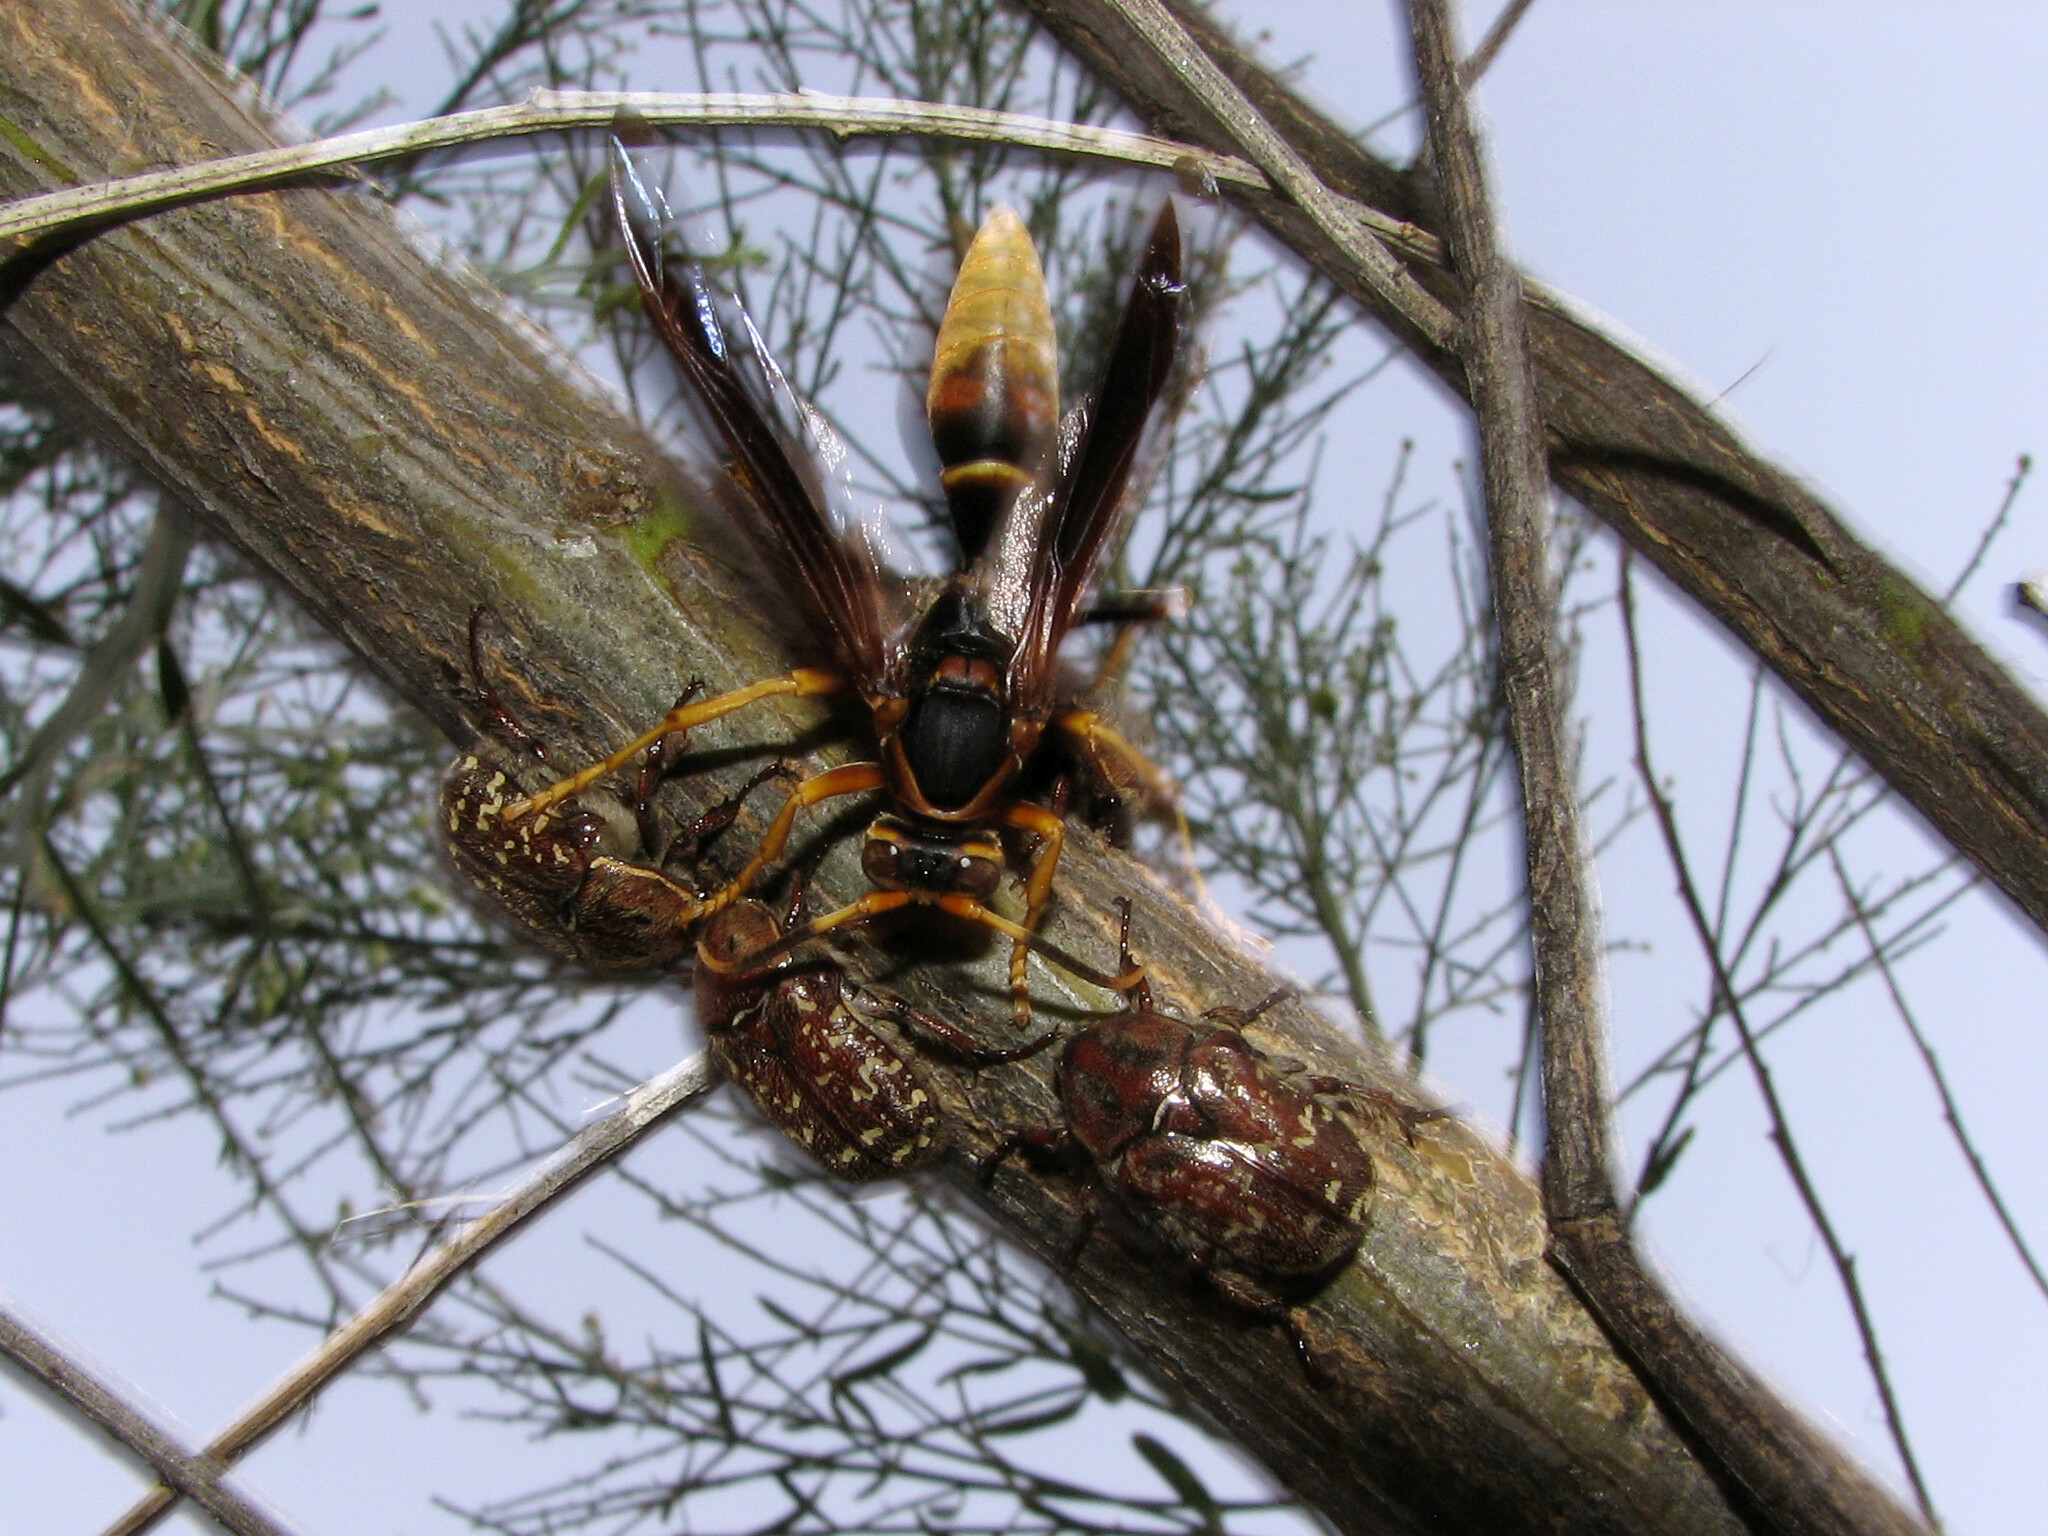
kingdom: Animalia
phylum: Arthropoda
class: Insecta
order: Coleoptera
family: Scarabaeidae
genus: Euphoria
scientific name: Euphoria leucographa
